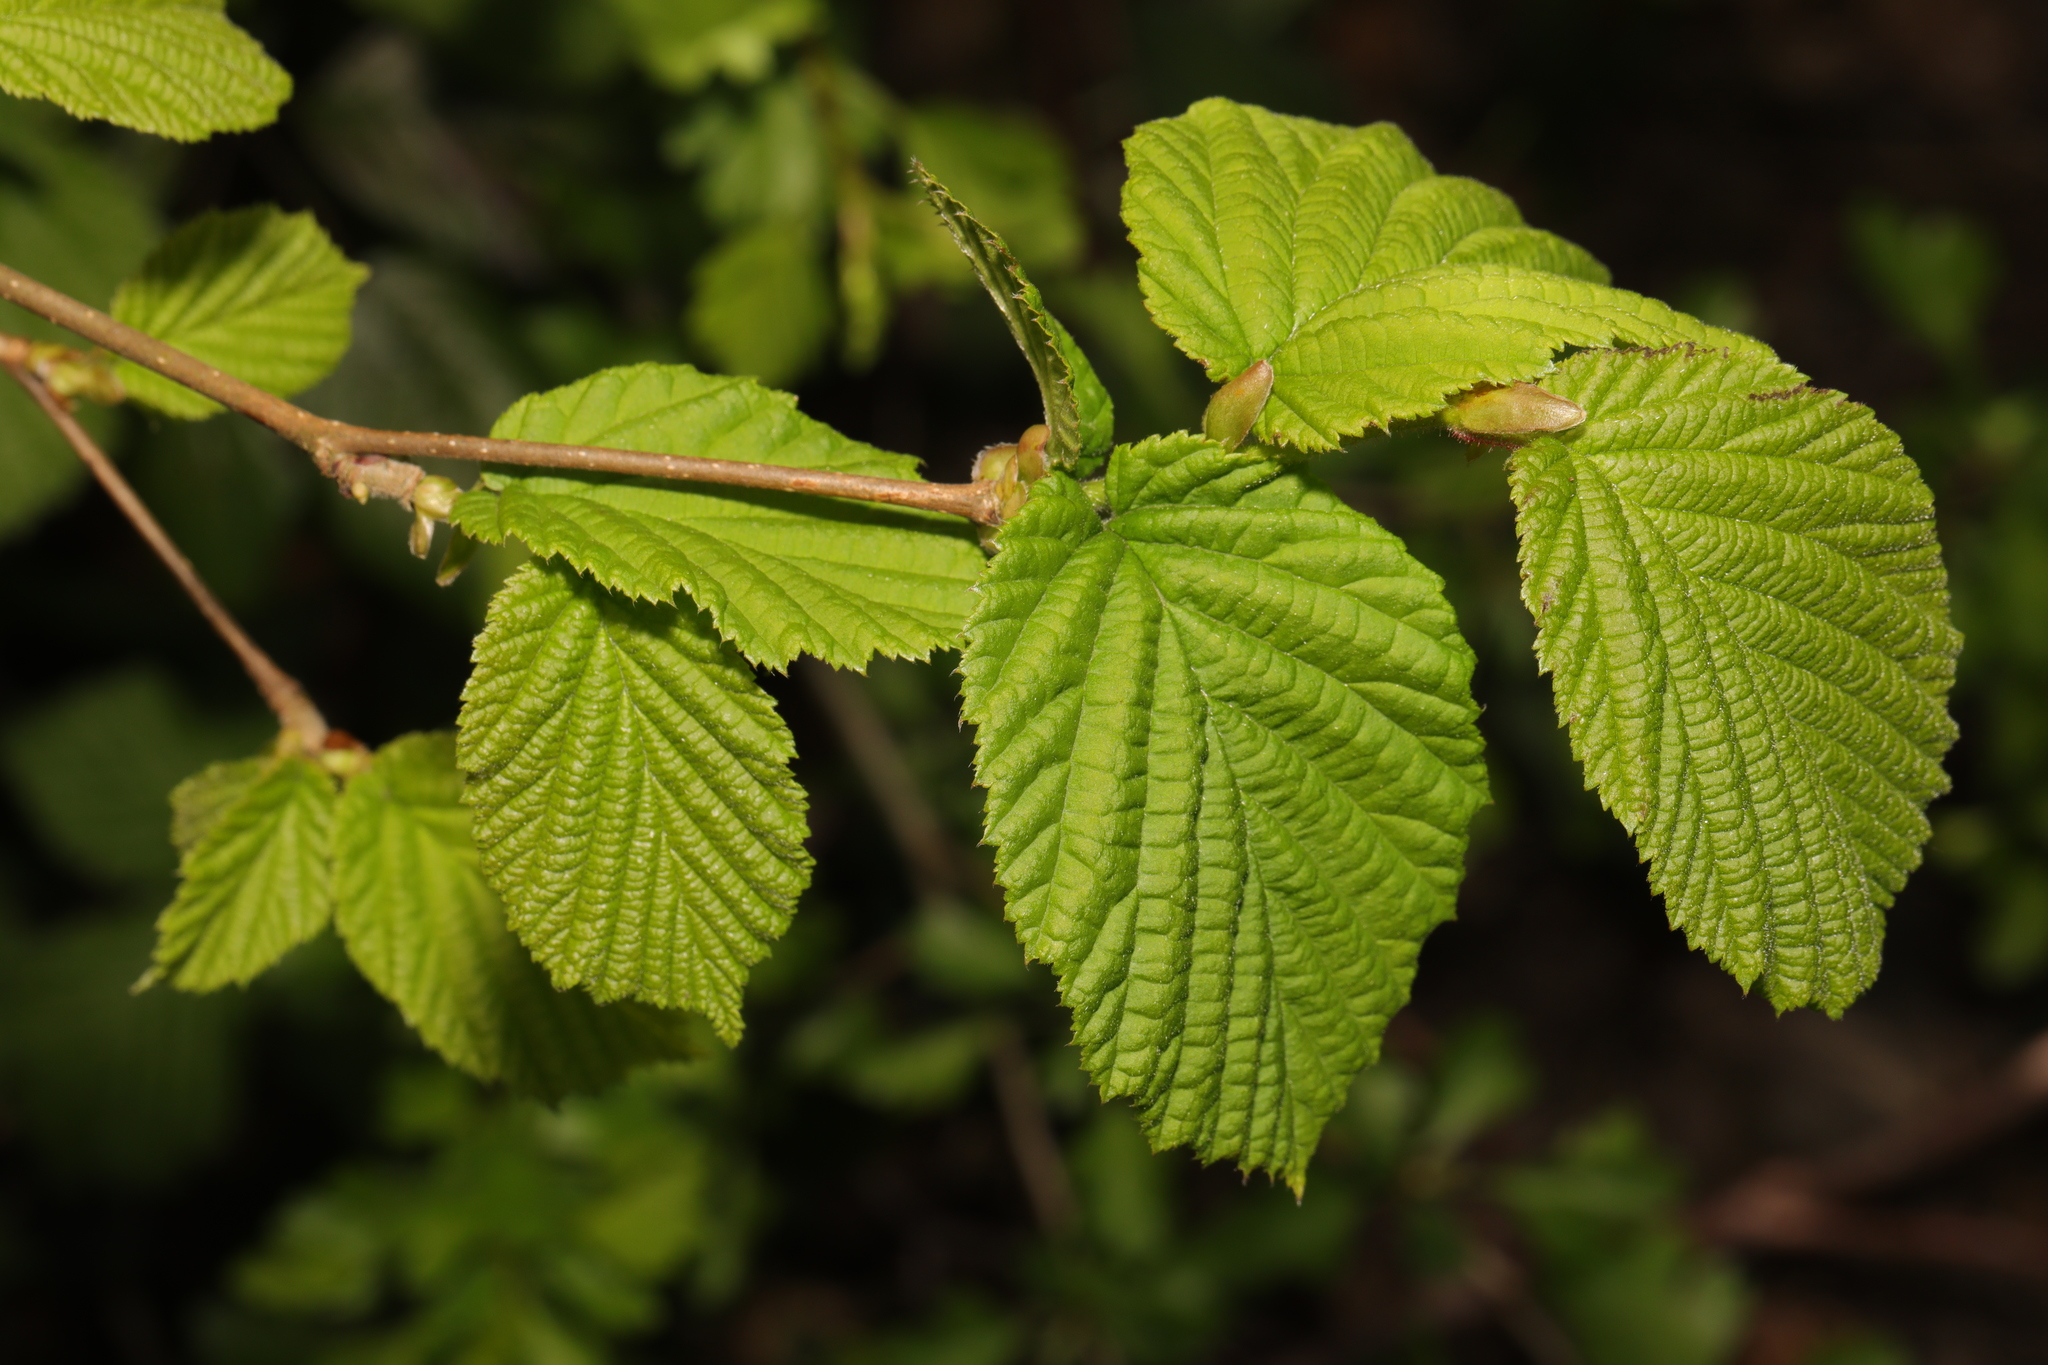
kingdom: Plantae
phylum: Tracheophyta
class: Magnoliopsida
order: Fagales
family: Betulaceae
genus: Corylus
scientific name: Corylus avellana
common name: European hazel
